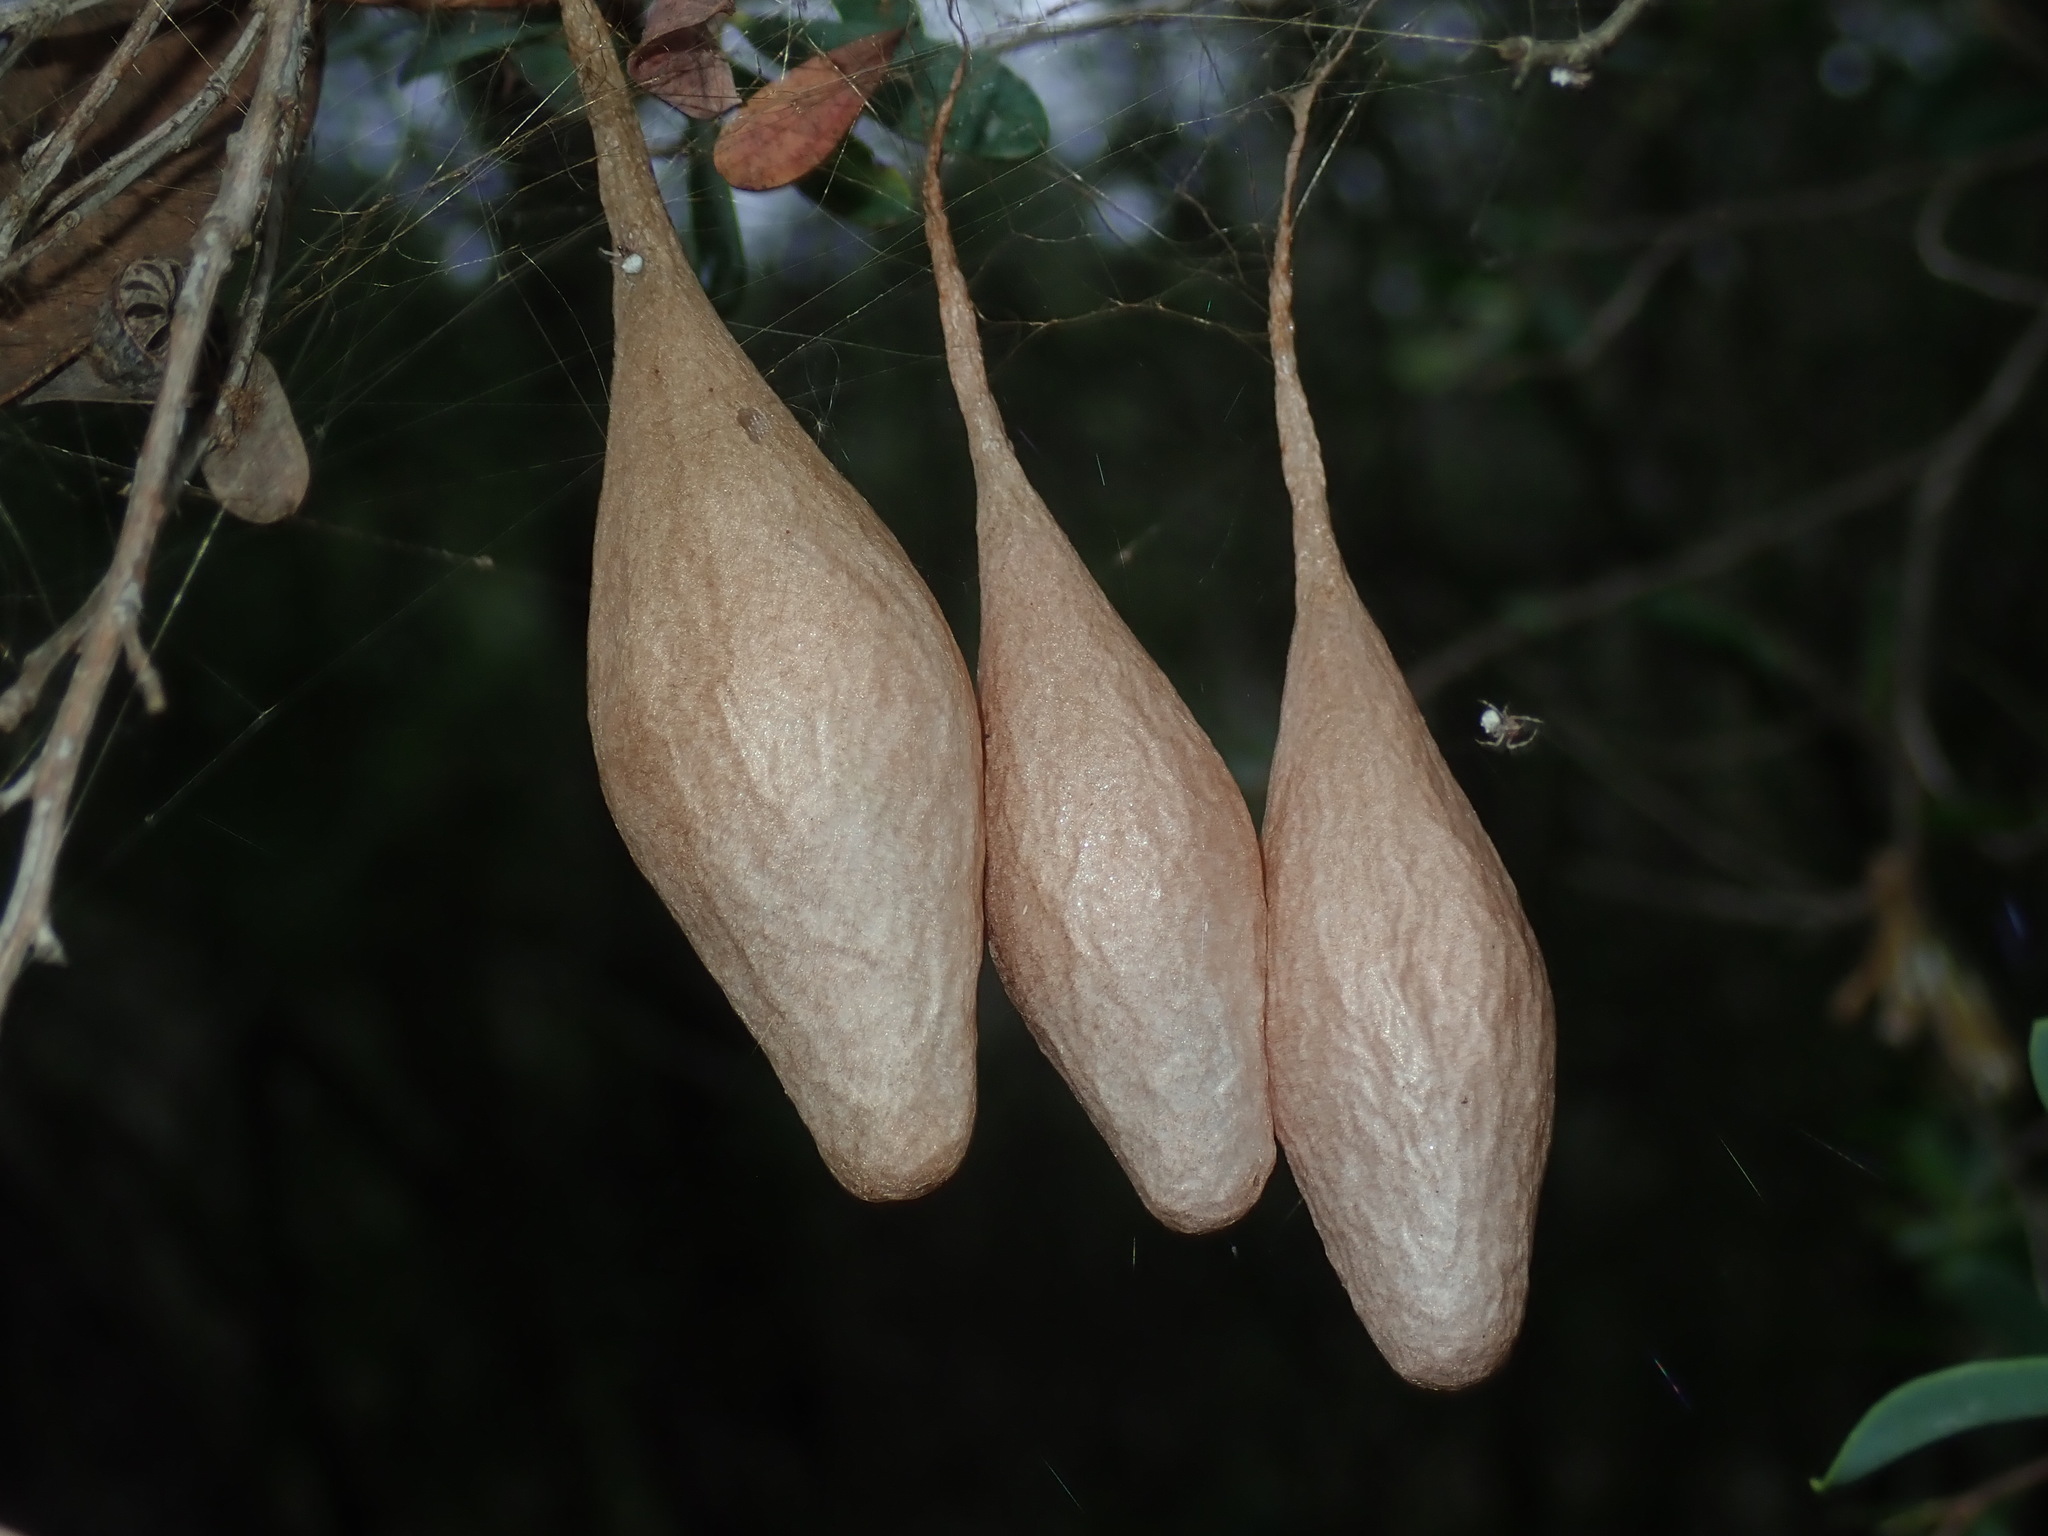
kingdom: Animalia
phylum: Arthropoda
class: Arachnida
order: Araneae
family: Araneidae
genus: Ordgarius
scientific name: Ordgarius magnificus
